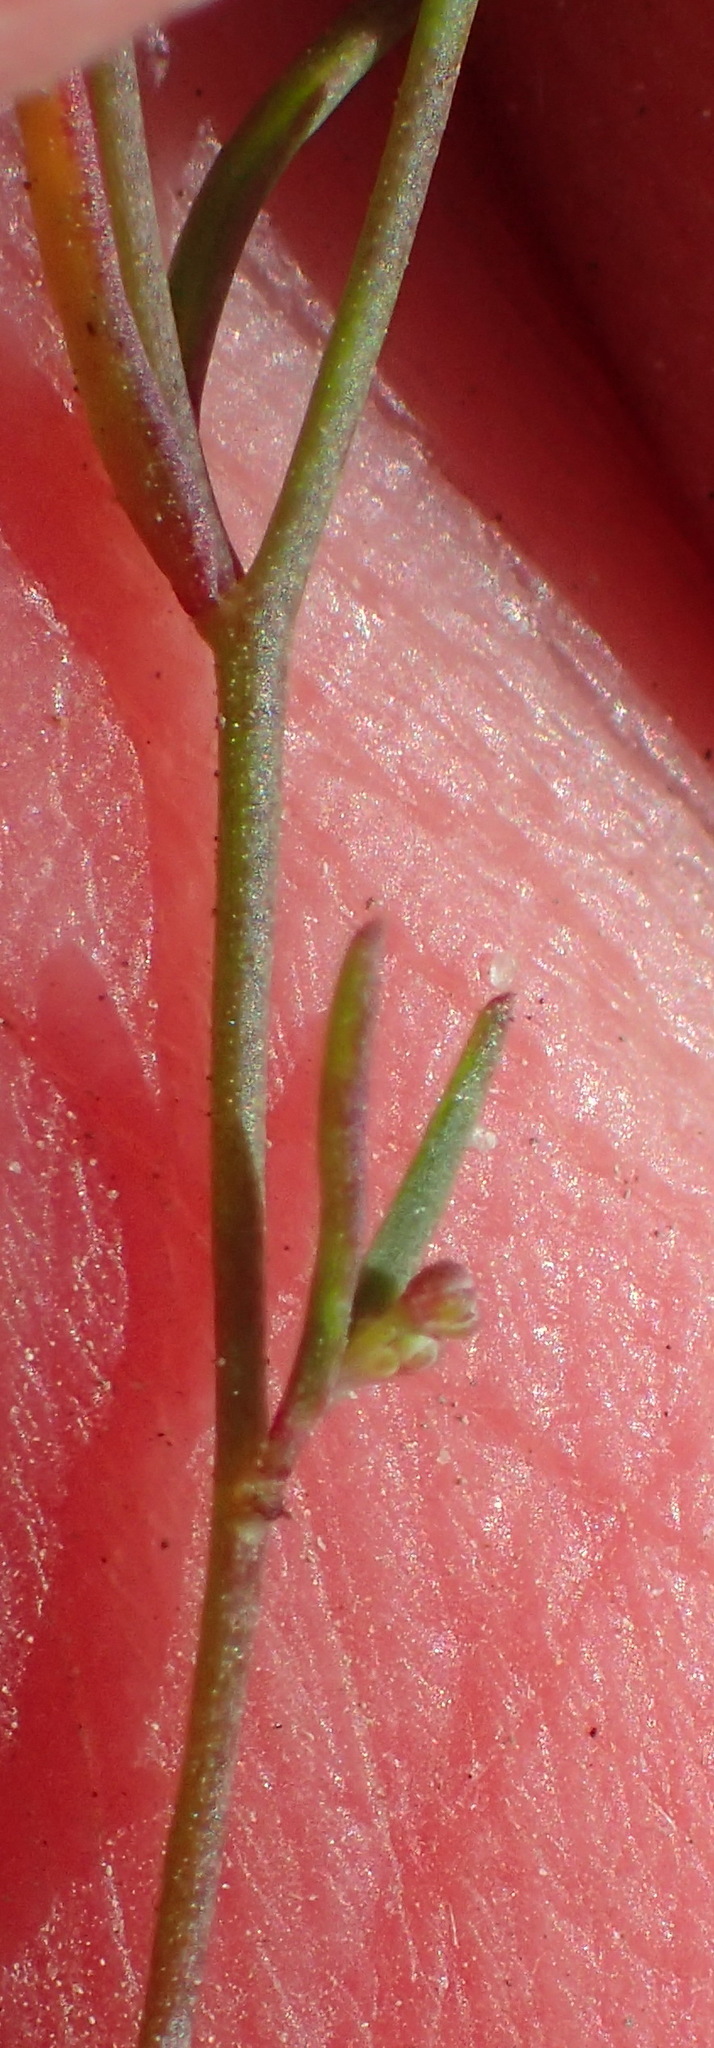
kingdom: Plantae
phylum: Tracheophyta
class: Magnoliopsida
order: Brassicales
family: Brassicaceae
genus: Heliophila
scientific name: Heliophila pusilla
